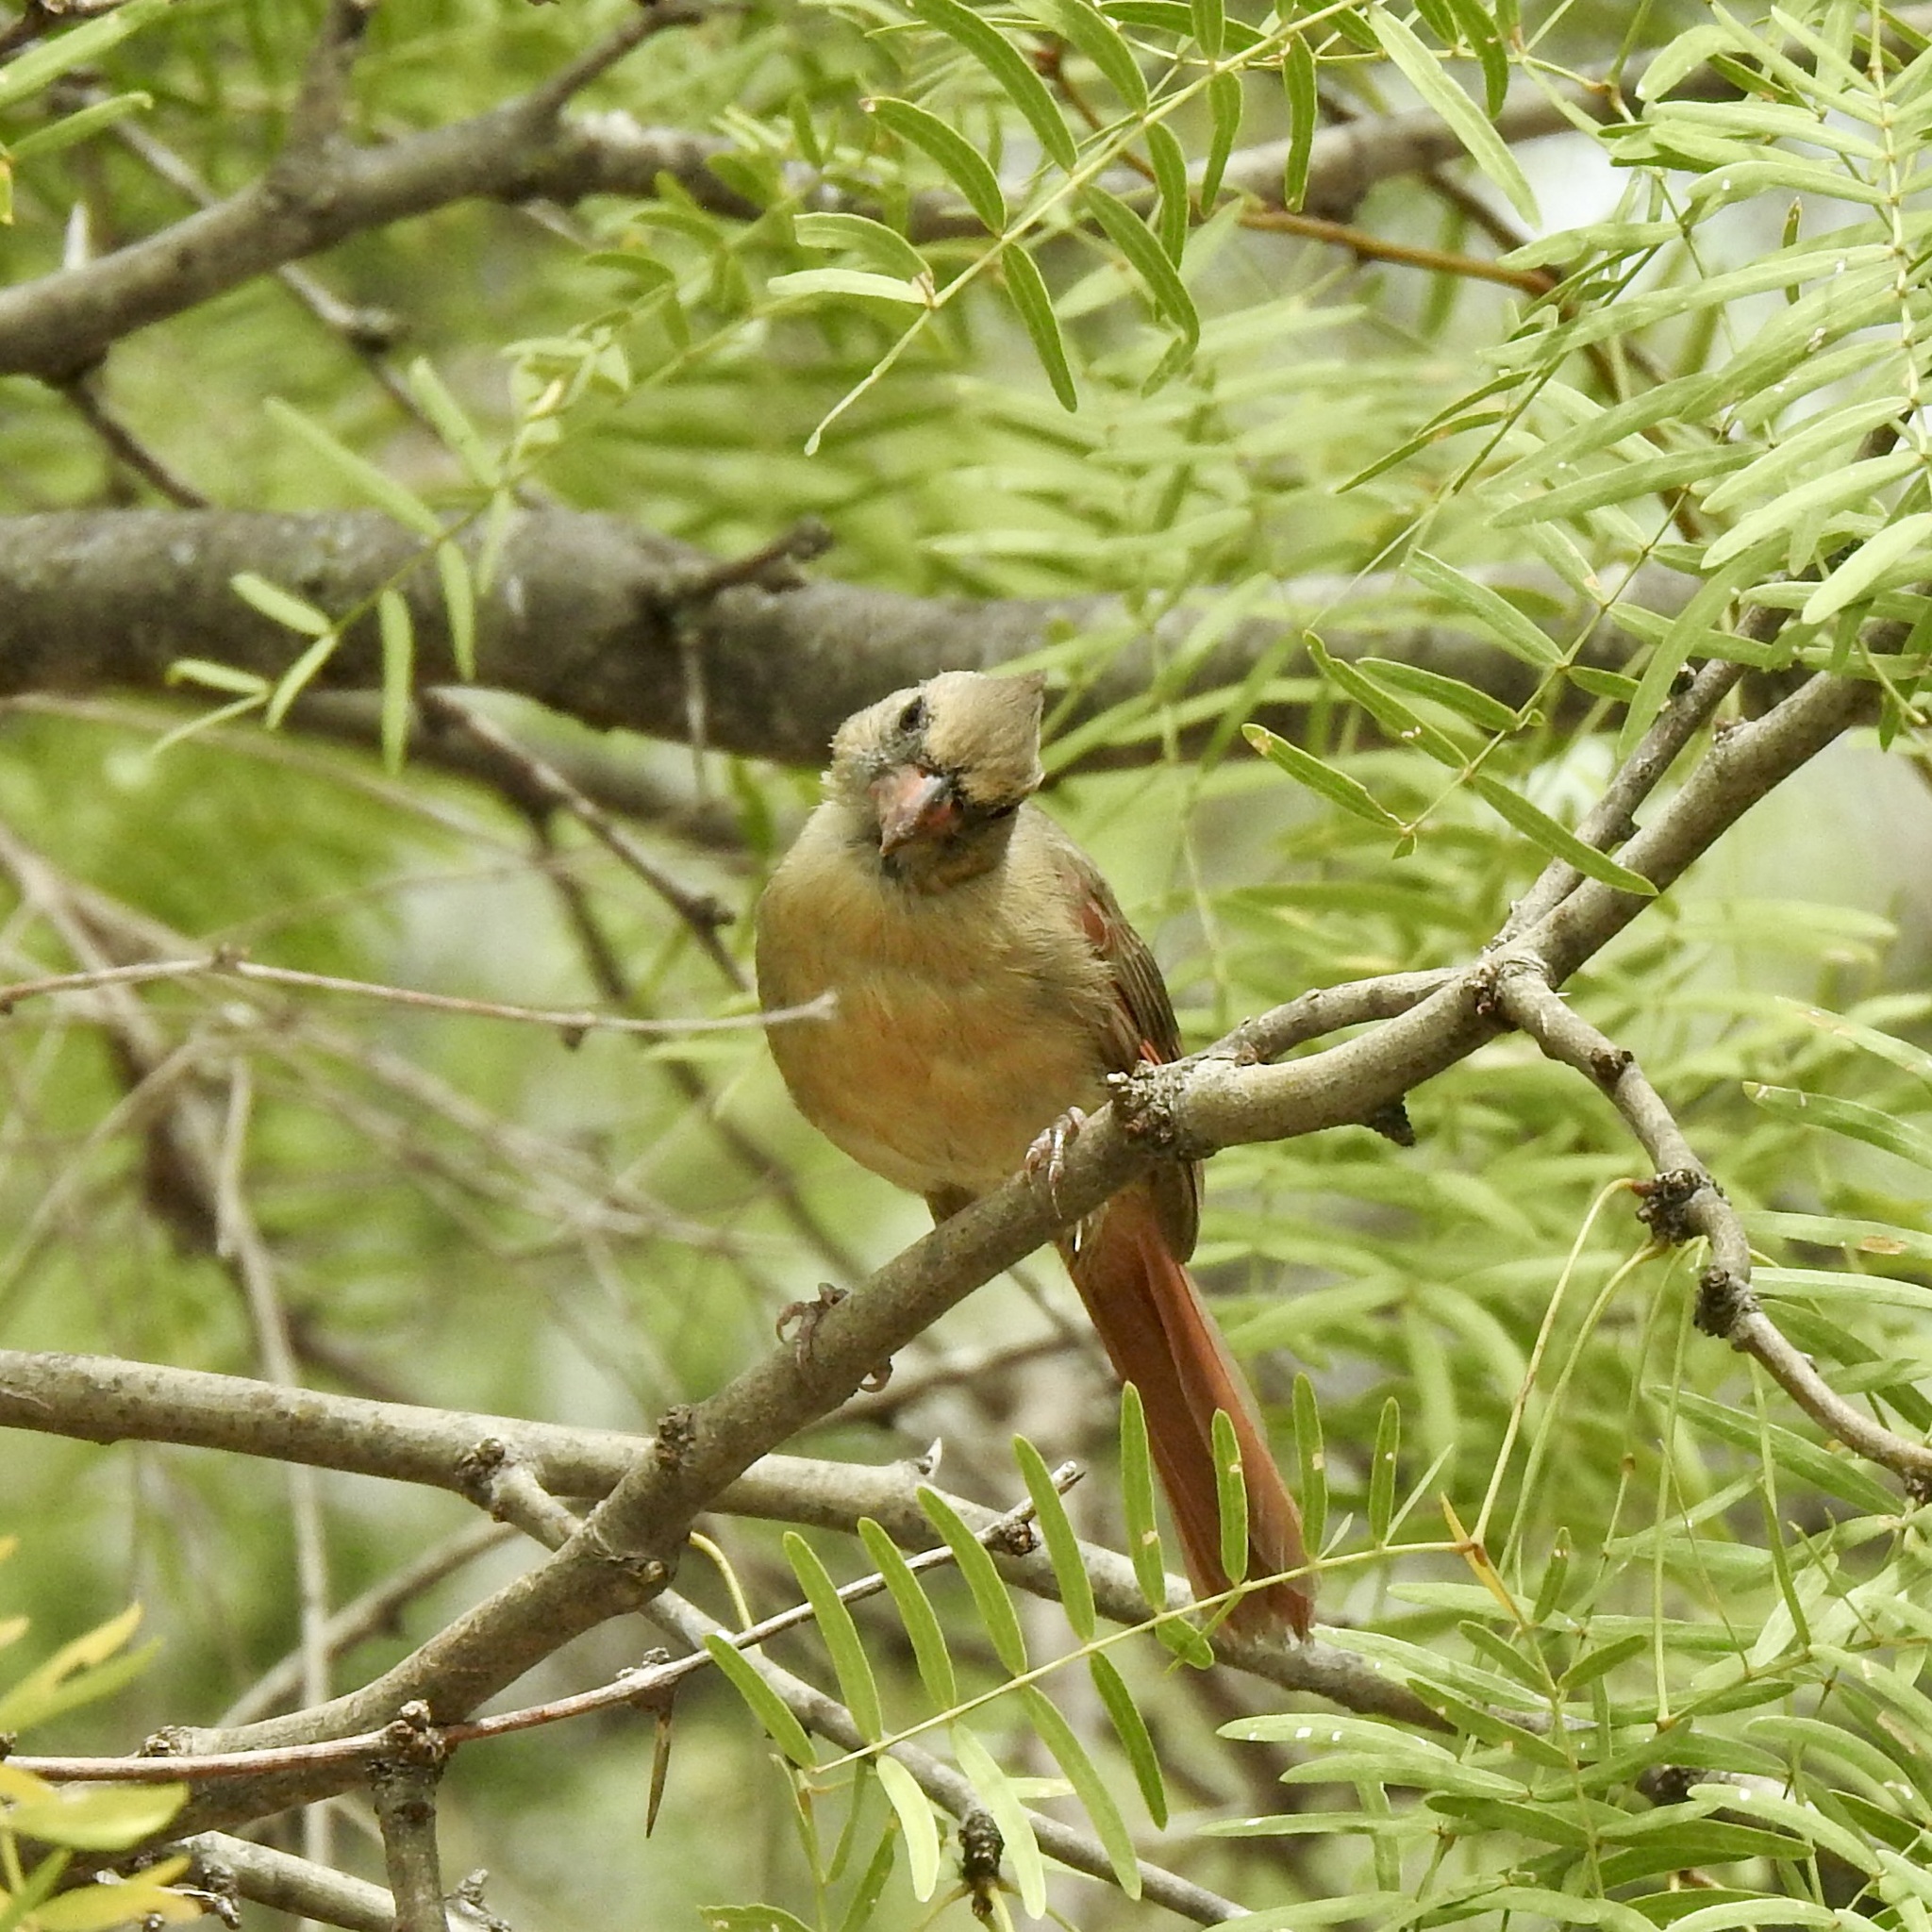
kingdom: Animalia
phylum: Chordata
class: Aves
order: Passeriformes
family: Cardinalidae
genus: Cardinalis
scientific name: Cardinalis cardinalis
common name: Northern cardinal
